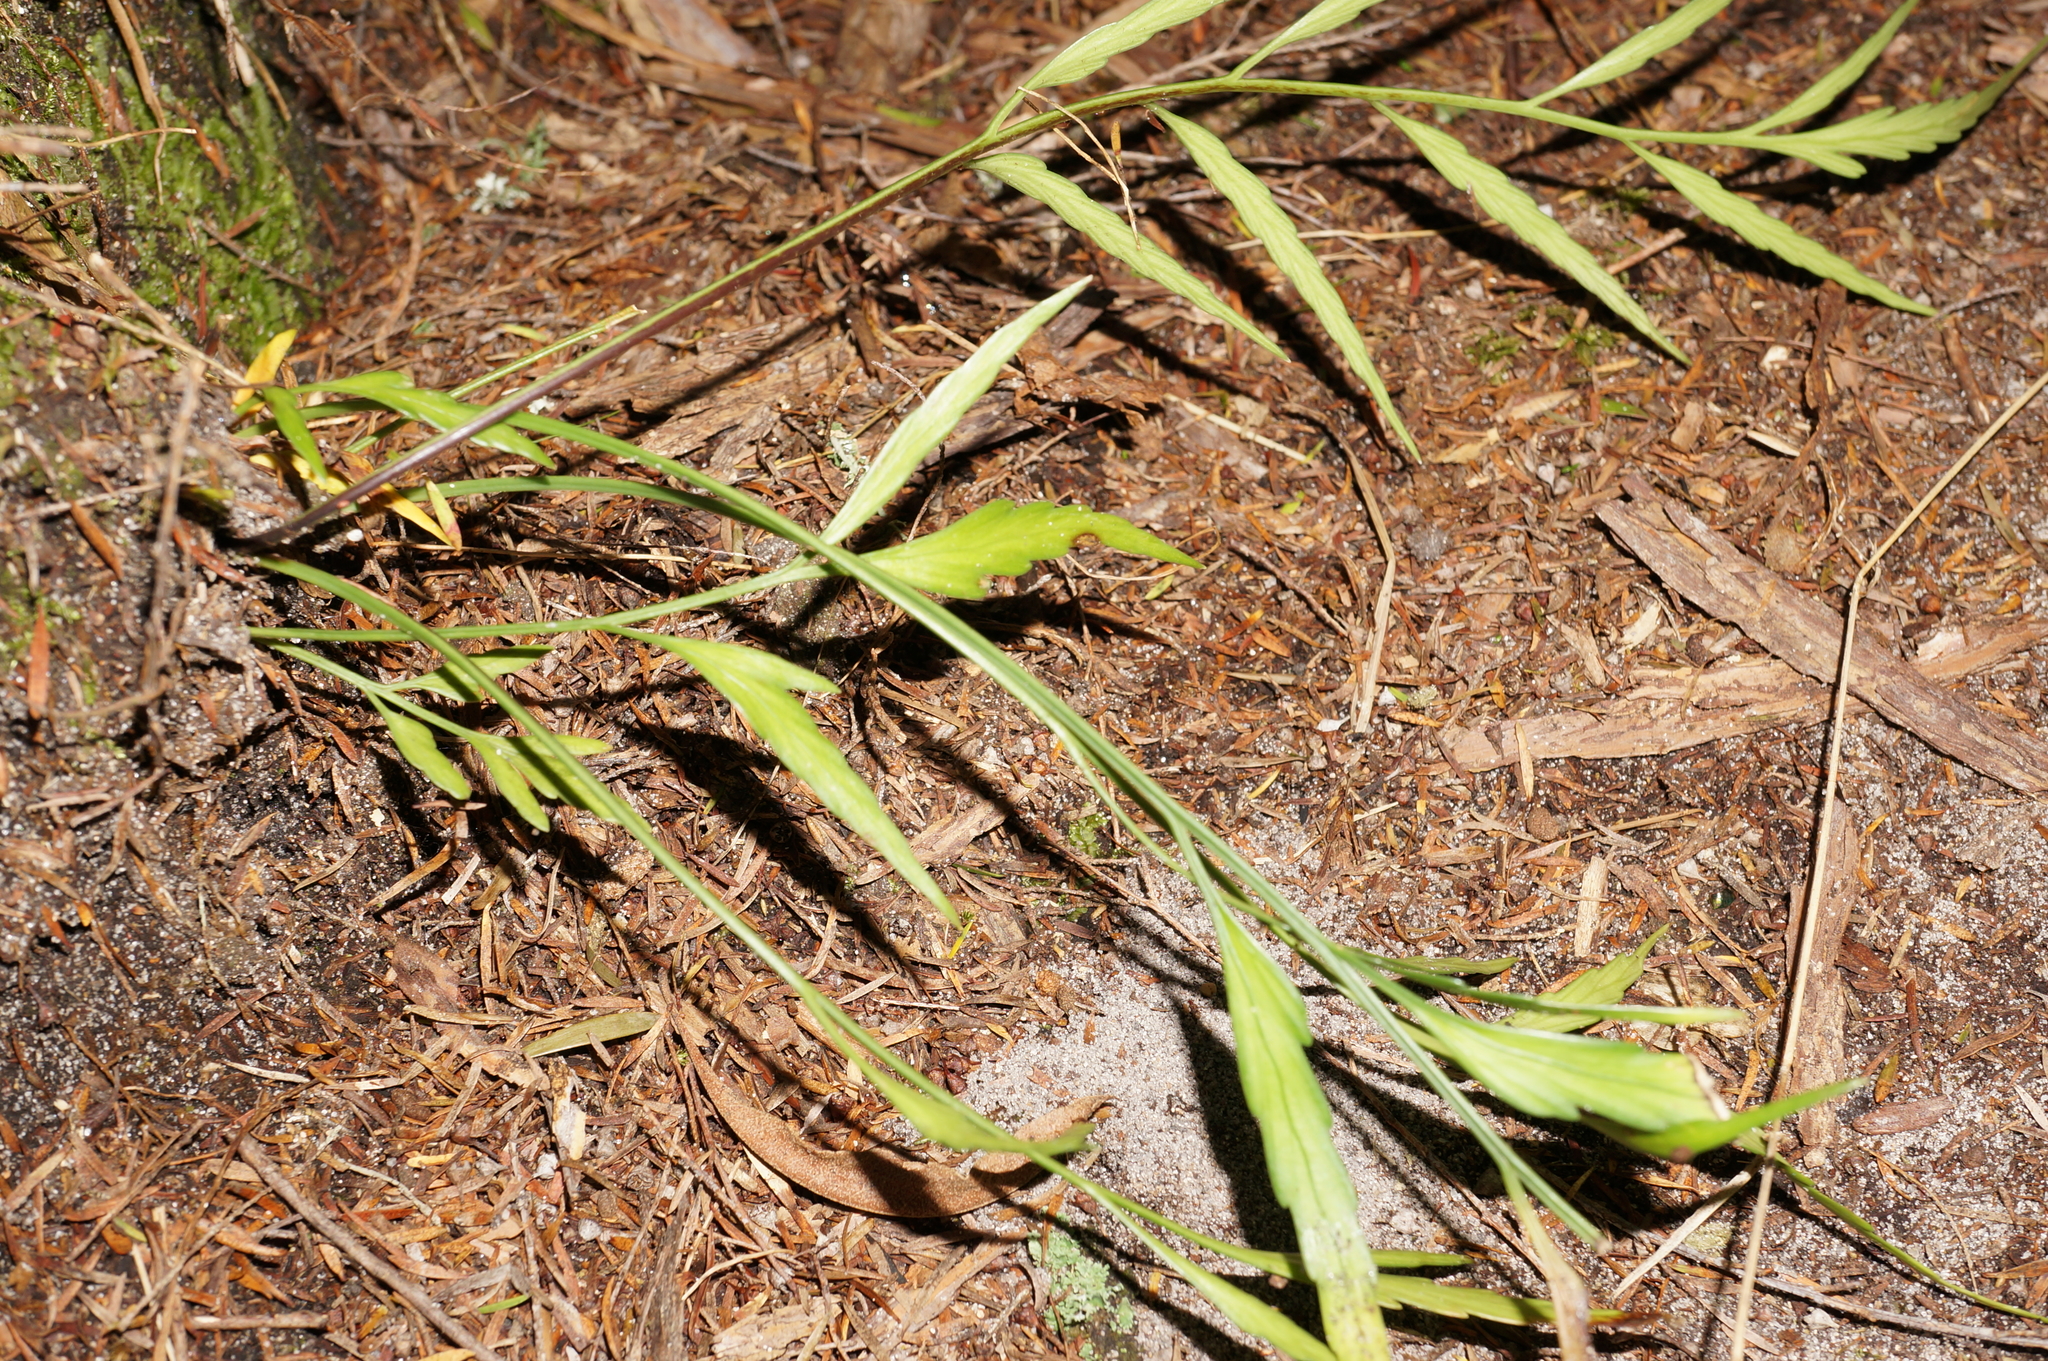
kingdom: Plantae
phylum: Tracheophyta
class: Polypodiopsida
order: Polypodiales
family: Aspleniaceae
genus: Asplenium
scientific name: Asplenium flaccidum
